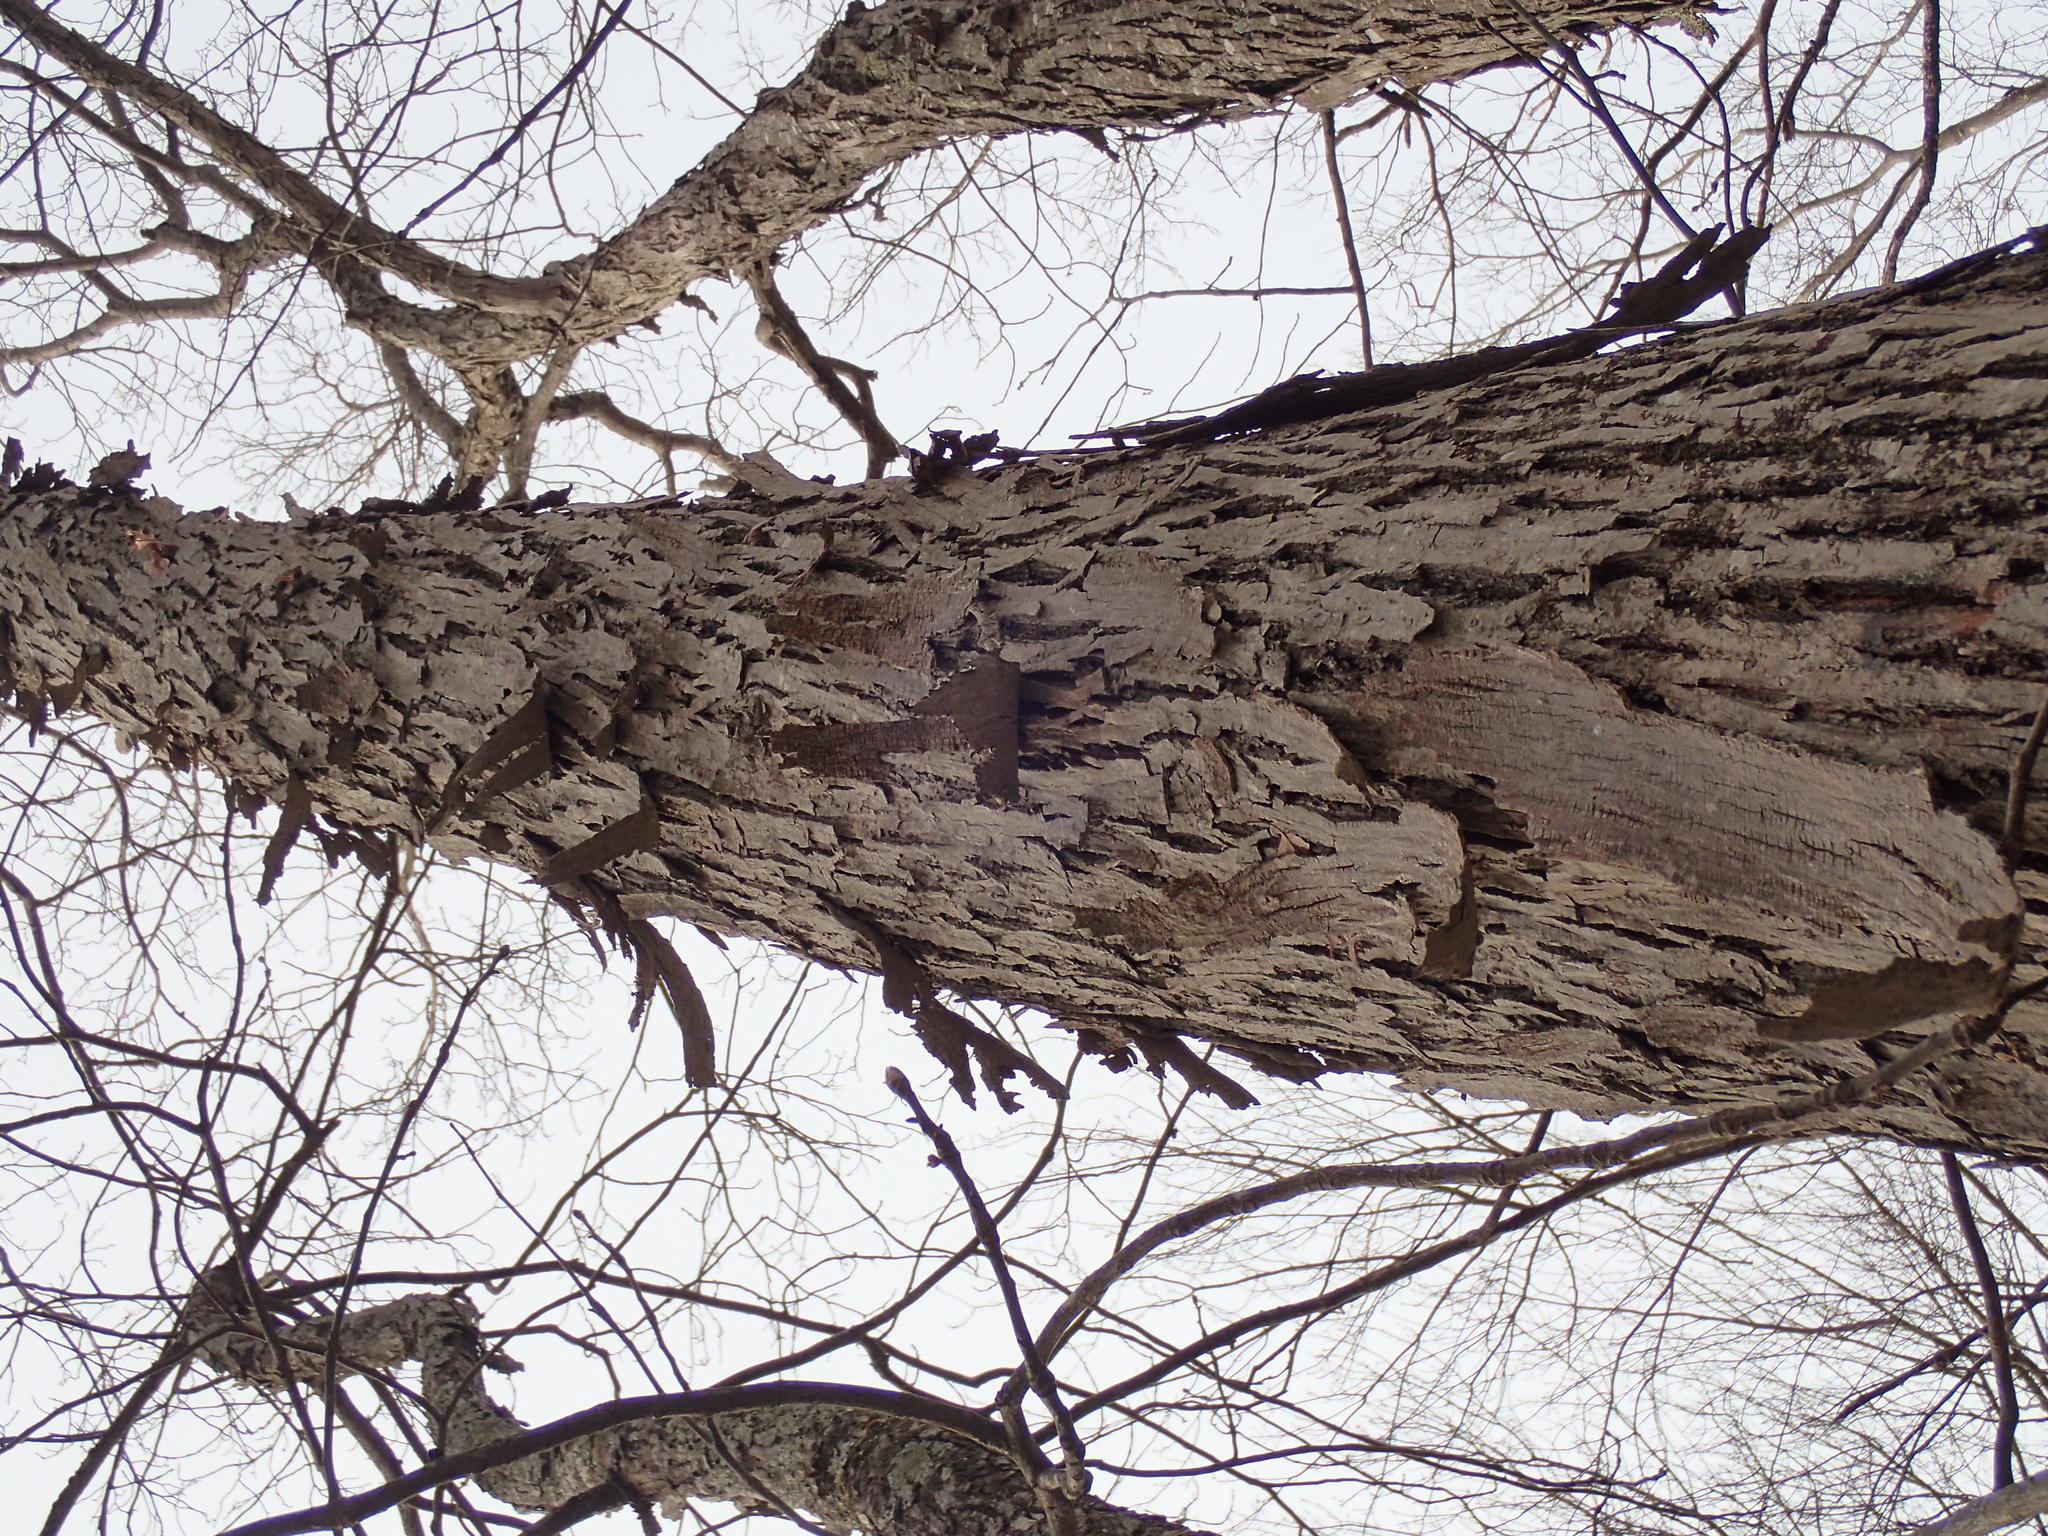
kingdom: Plantae
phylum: Tracheophyta
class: Magnoliopsida
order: Fagales
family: Juglandaceae
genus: Carya
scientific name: Carya ovata
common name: Shagbark hickory
